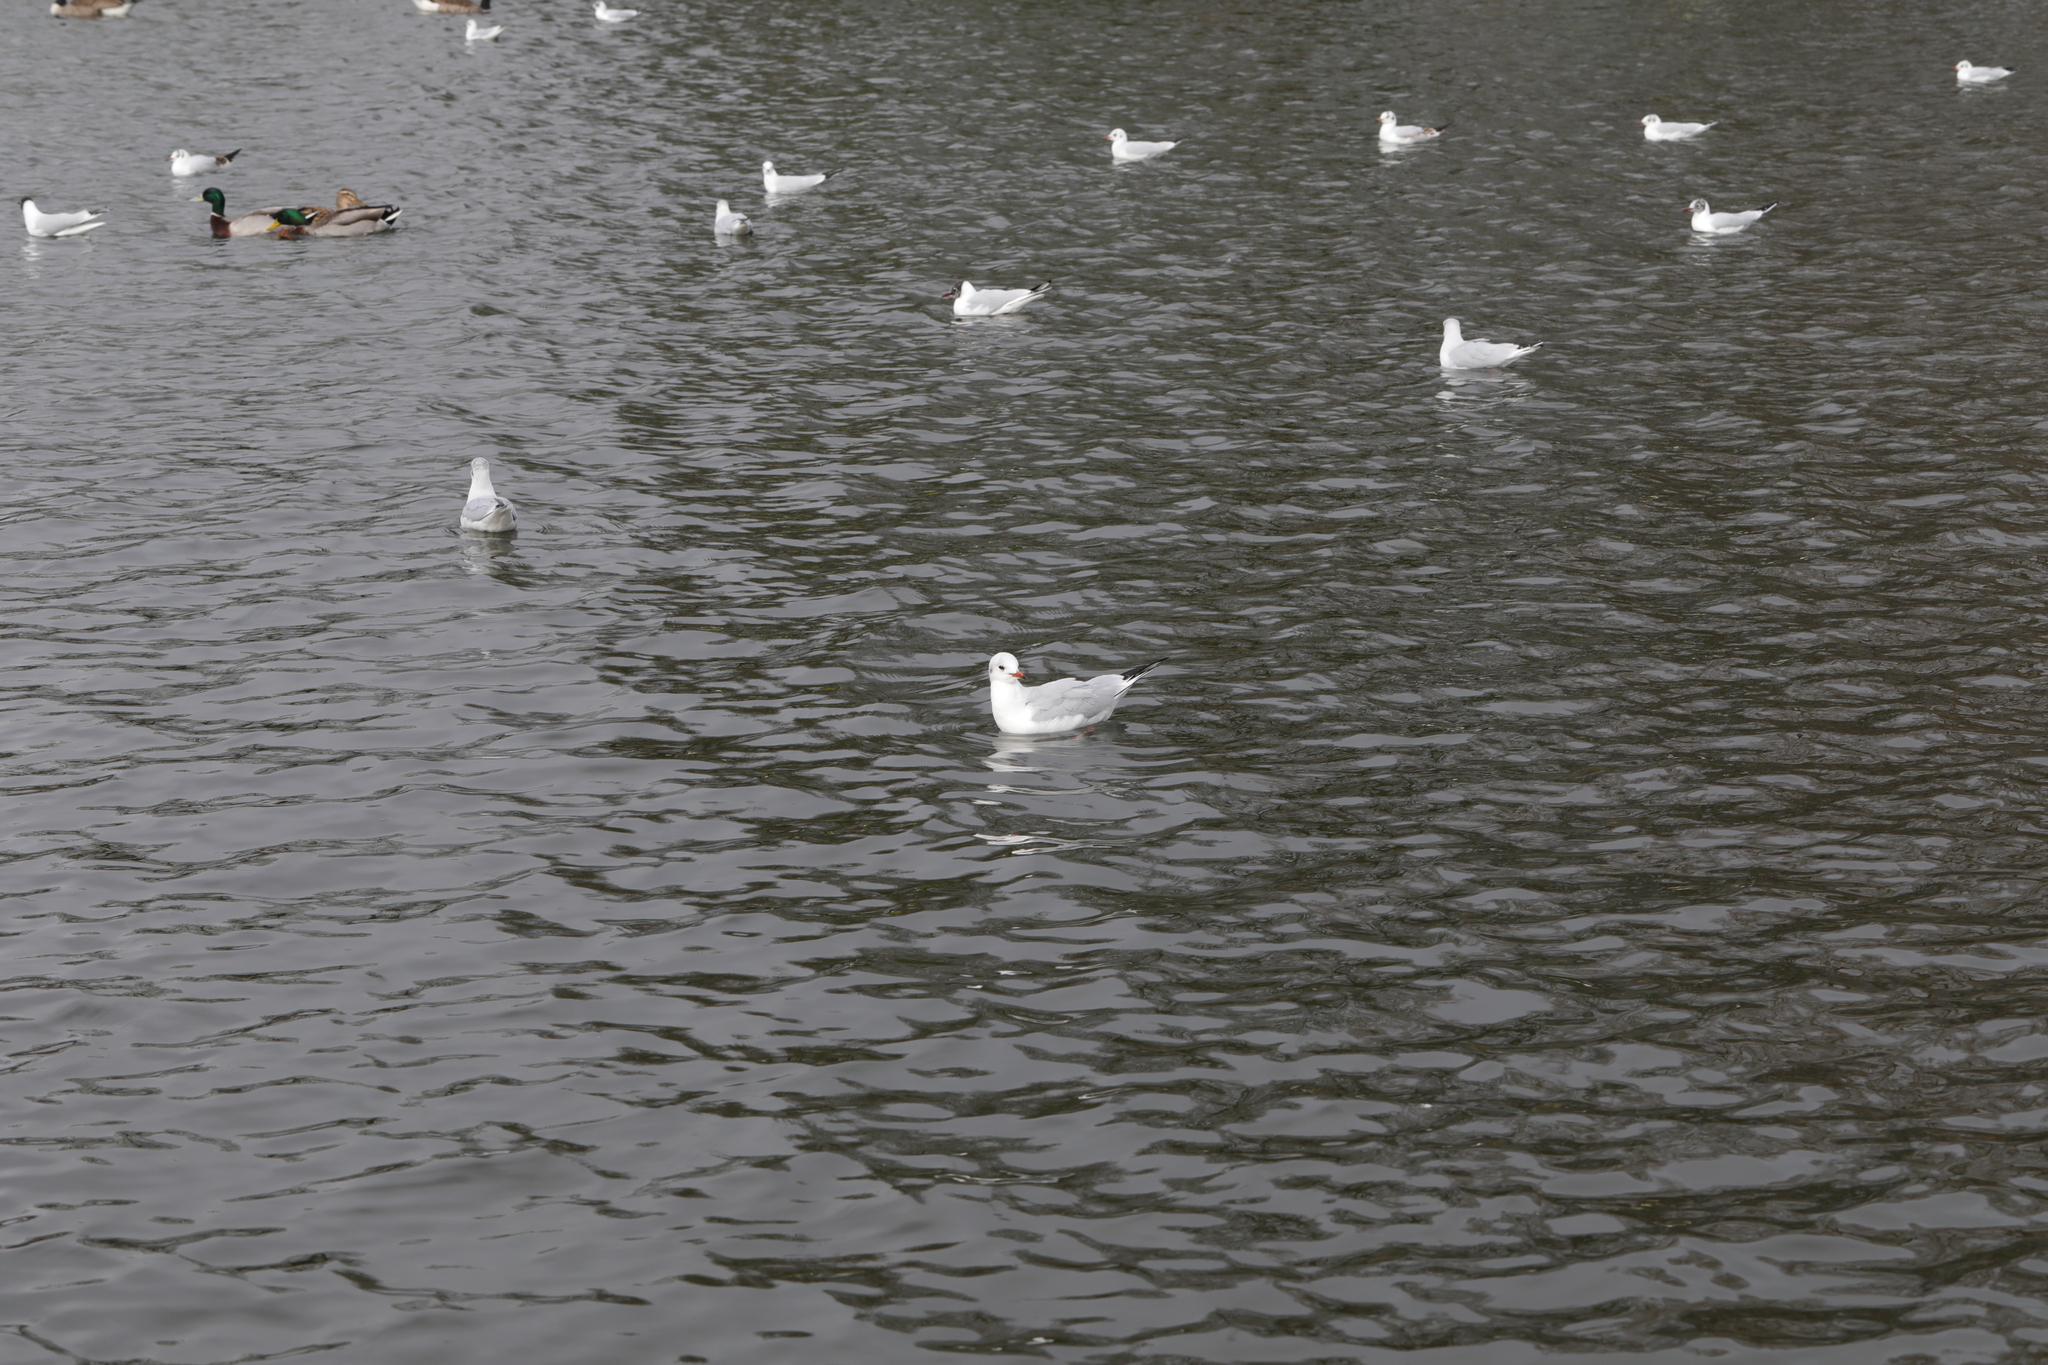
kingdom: Animalia
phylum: Chordata
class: Aves
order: Charadriiformes
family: Laridae
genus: Chroicocephalus
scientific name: Chroicocephalus ridibundus
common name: Black-headed gull
